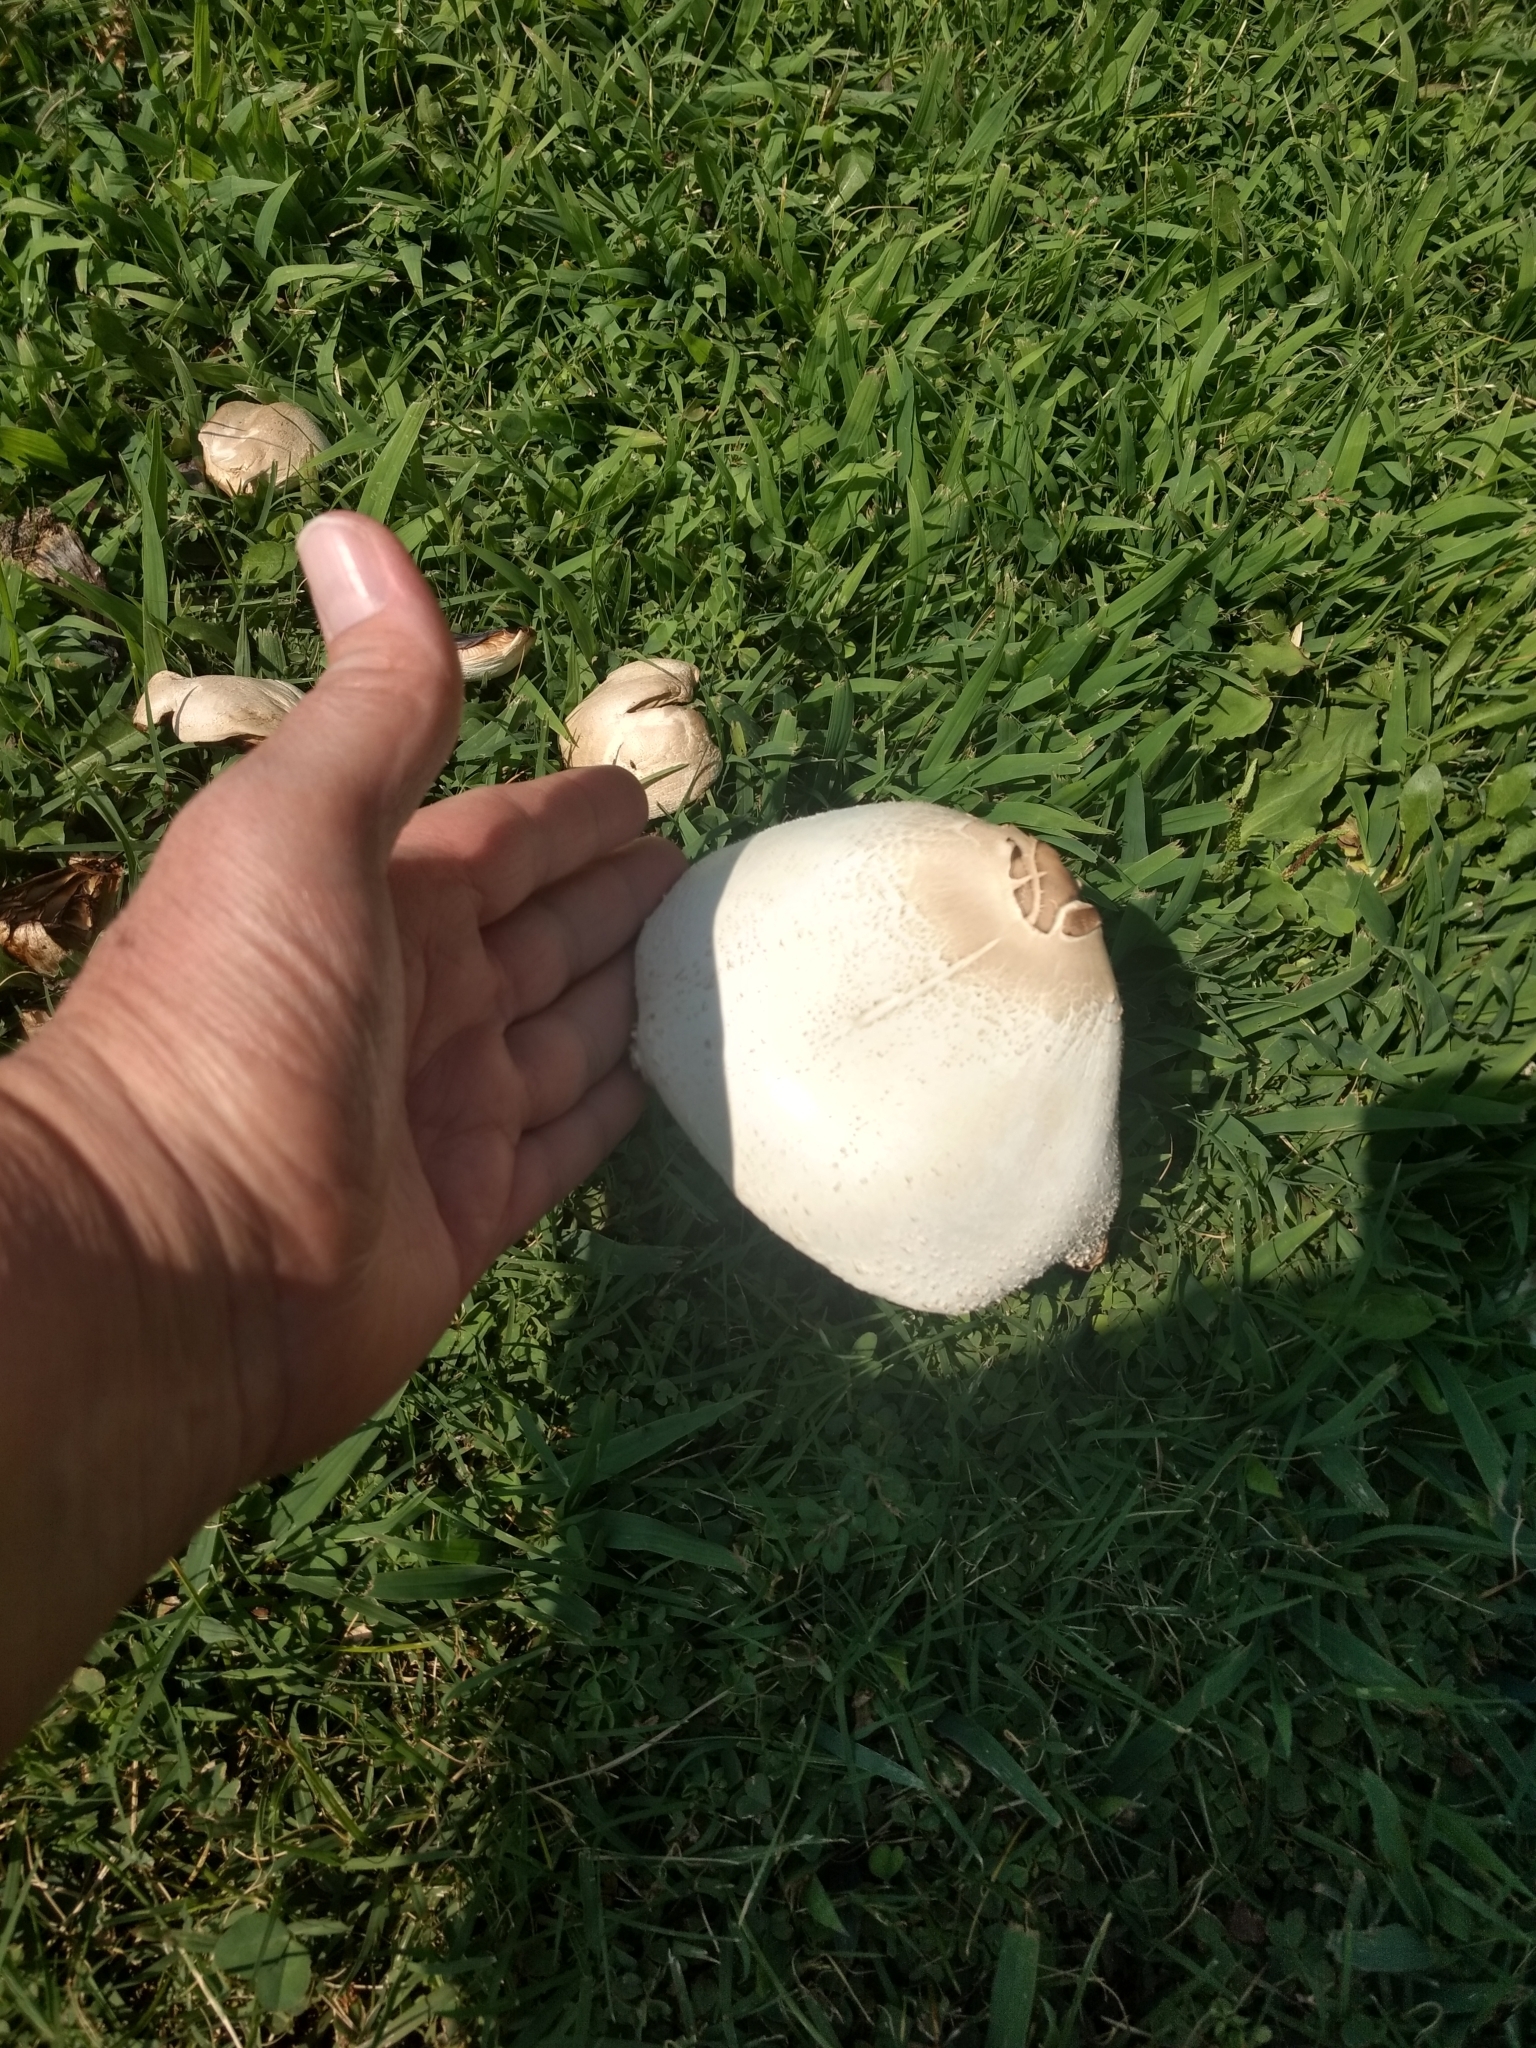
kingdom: Fungi
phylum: Basidiomycota
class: Agaricomycetes
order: Agaricales
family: Agaricaceae
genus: Chlorophyllum
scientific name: Chlorophyllum molybdites
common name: False parasol
